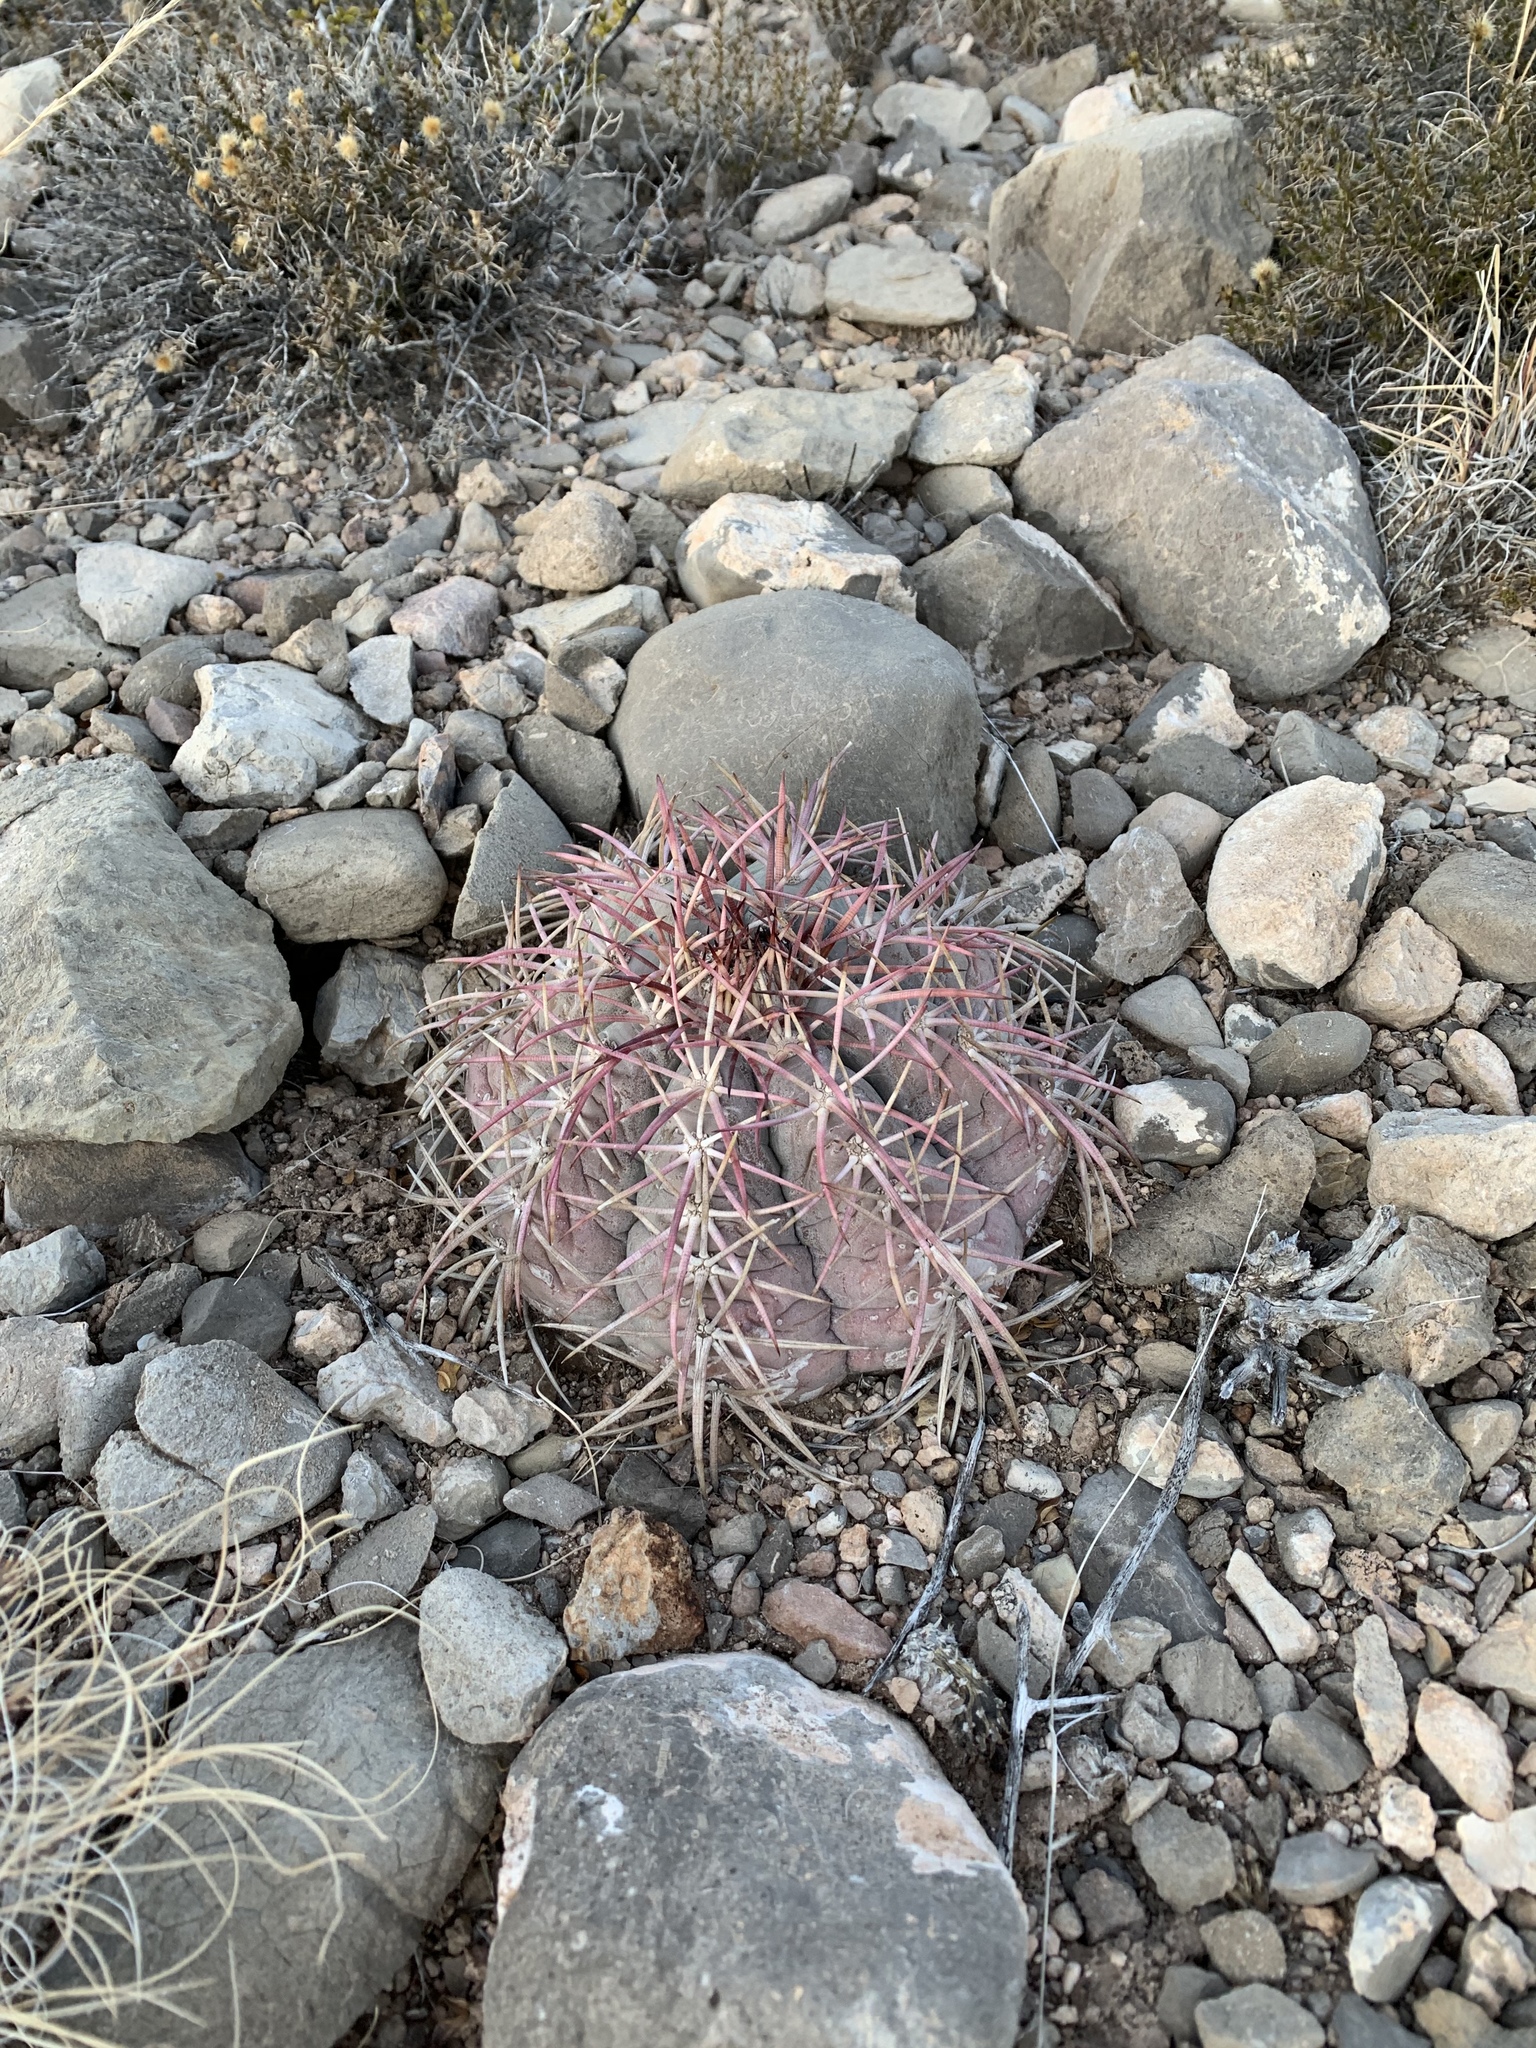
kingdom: Plantae
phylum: Tracheophyta
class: Magnoliopsida
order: Caryophyllales
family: Cactaceae
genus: Echinocactus
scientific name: Echinocactus horizonthalonius
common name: Devilshead
